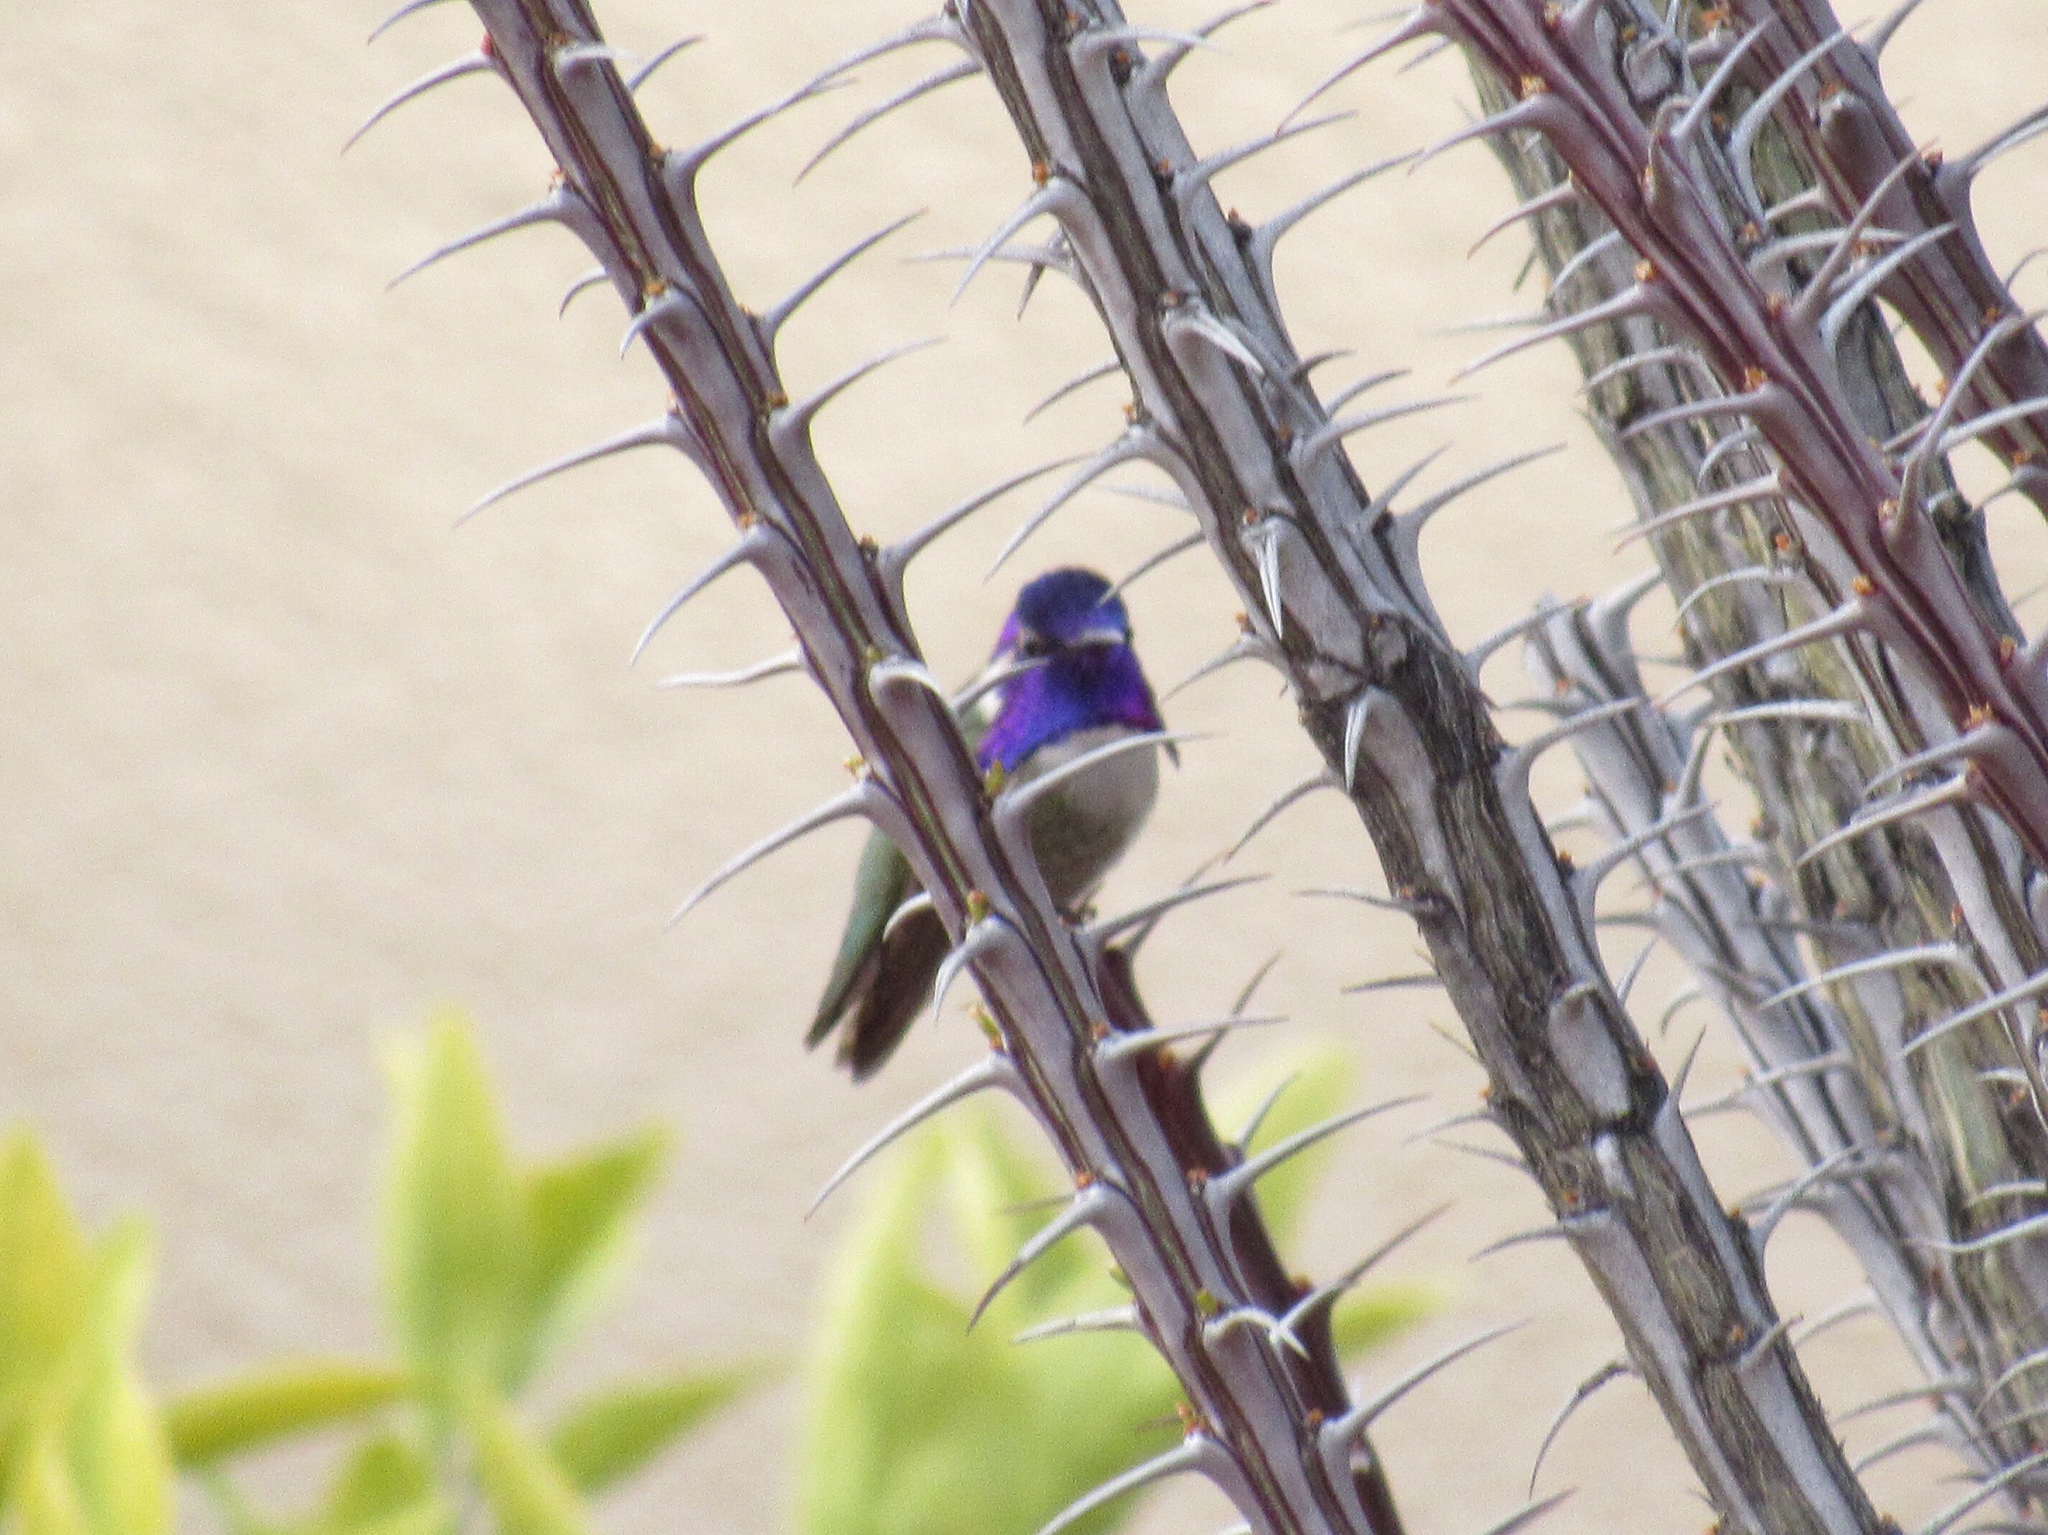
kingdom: Animalia
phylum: Chordata
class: Aves
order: Apodiformes
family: Trochilidae
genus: Calypte
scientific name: Calypte costae
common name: Costa's hummingbird
